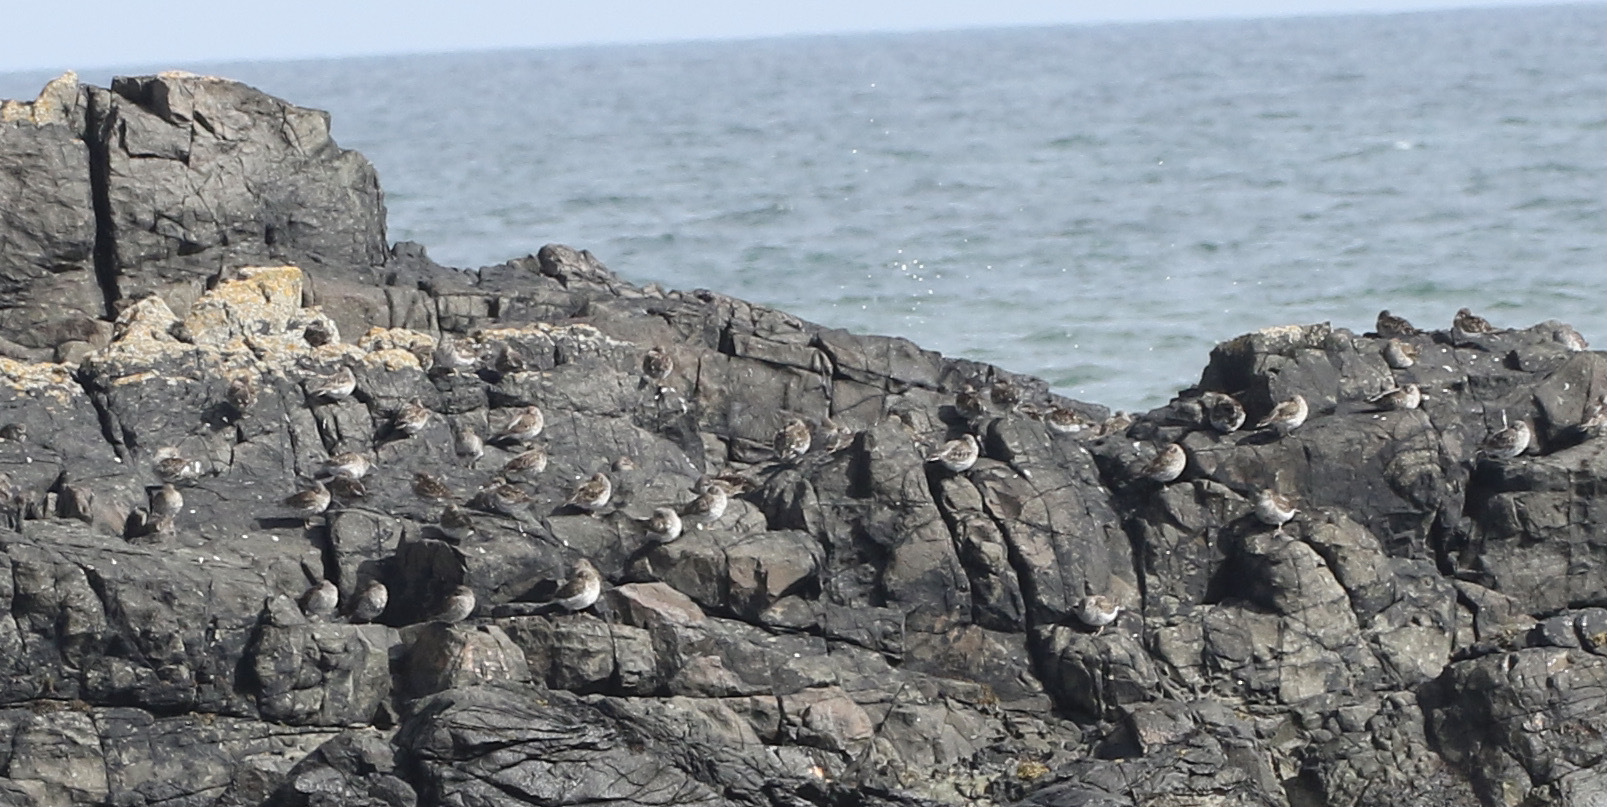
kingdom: Animalia
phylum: Chordata
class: Aves
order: Charadriiformes
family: Scolopacidae
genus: Calidris
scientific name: Calidris maritima
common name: Purple sandpiper
